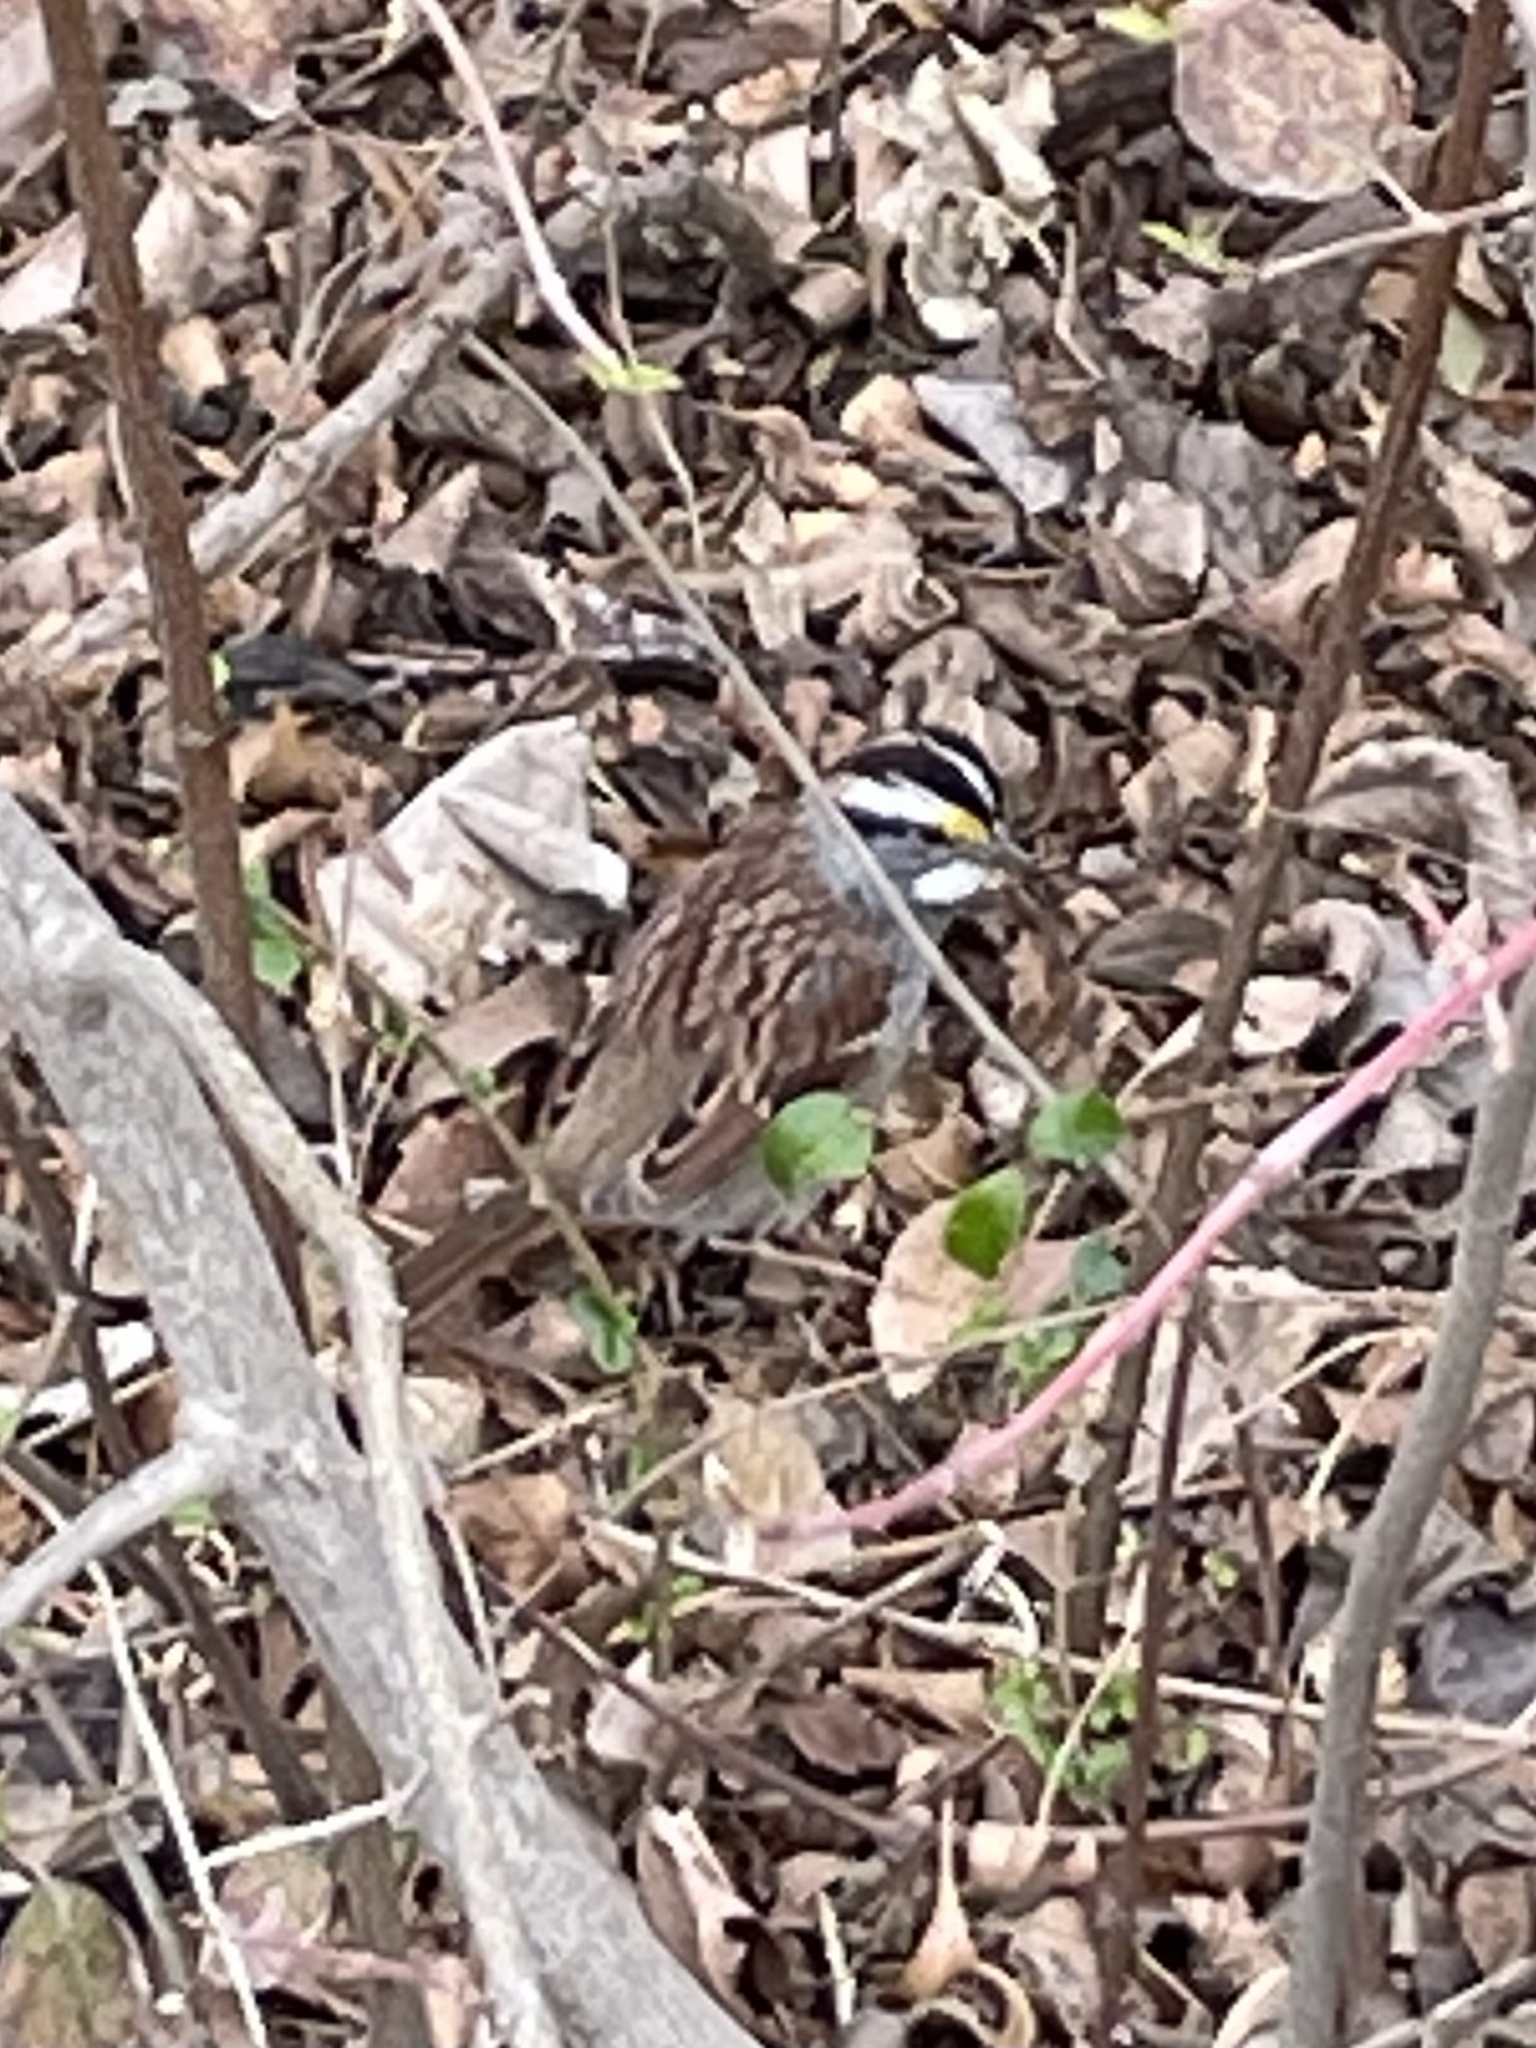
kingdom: Animalia
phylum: Chordata
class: Aves
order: Passeriformes
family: Passerellidae
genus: Zonotrichia
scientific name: Zonotrichia albicollis
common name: White-throated sparrow
